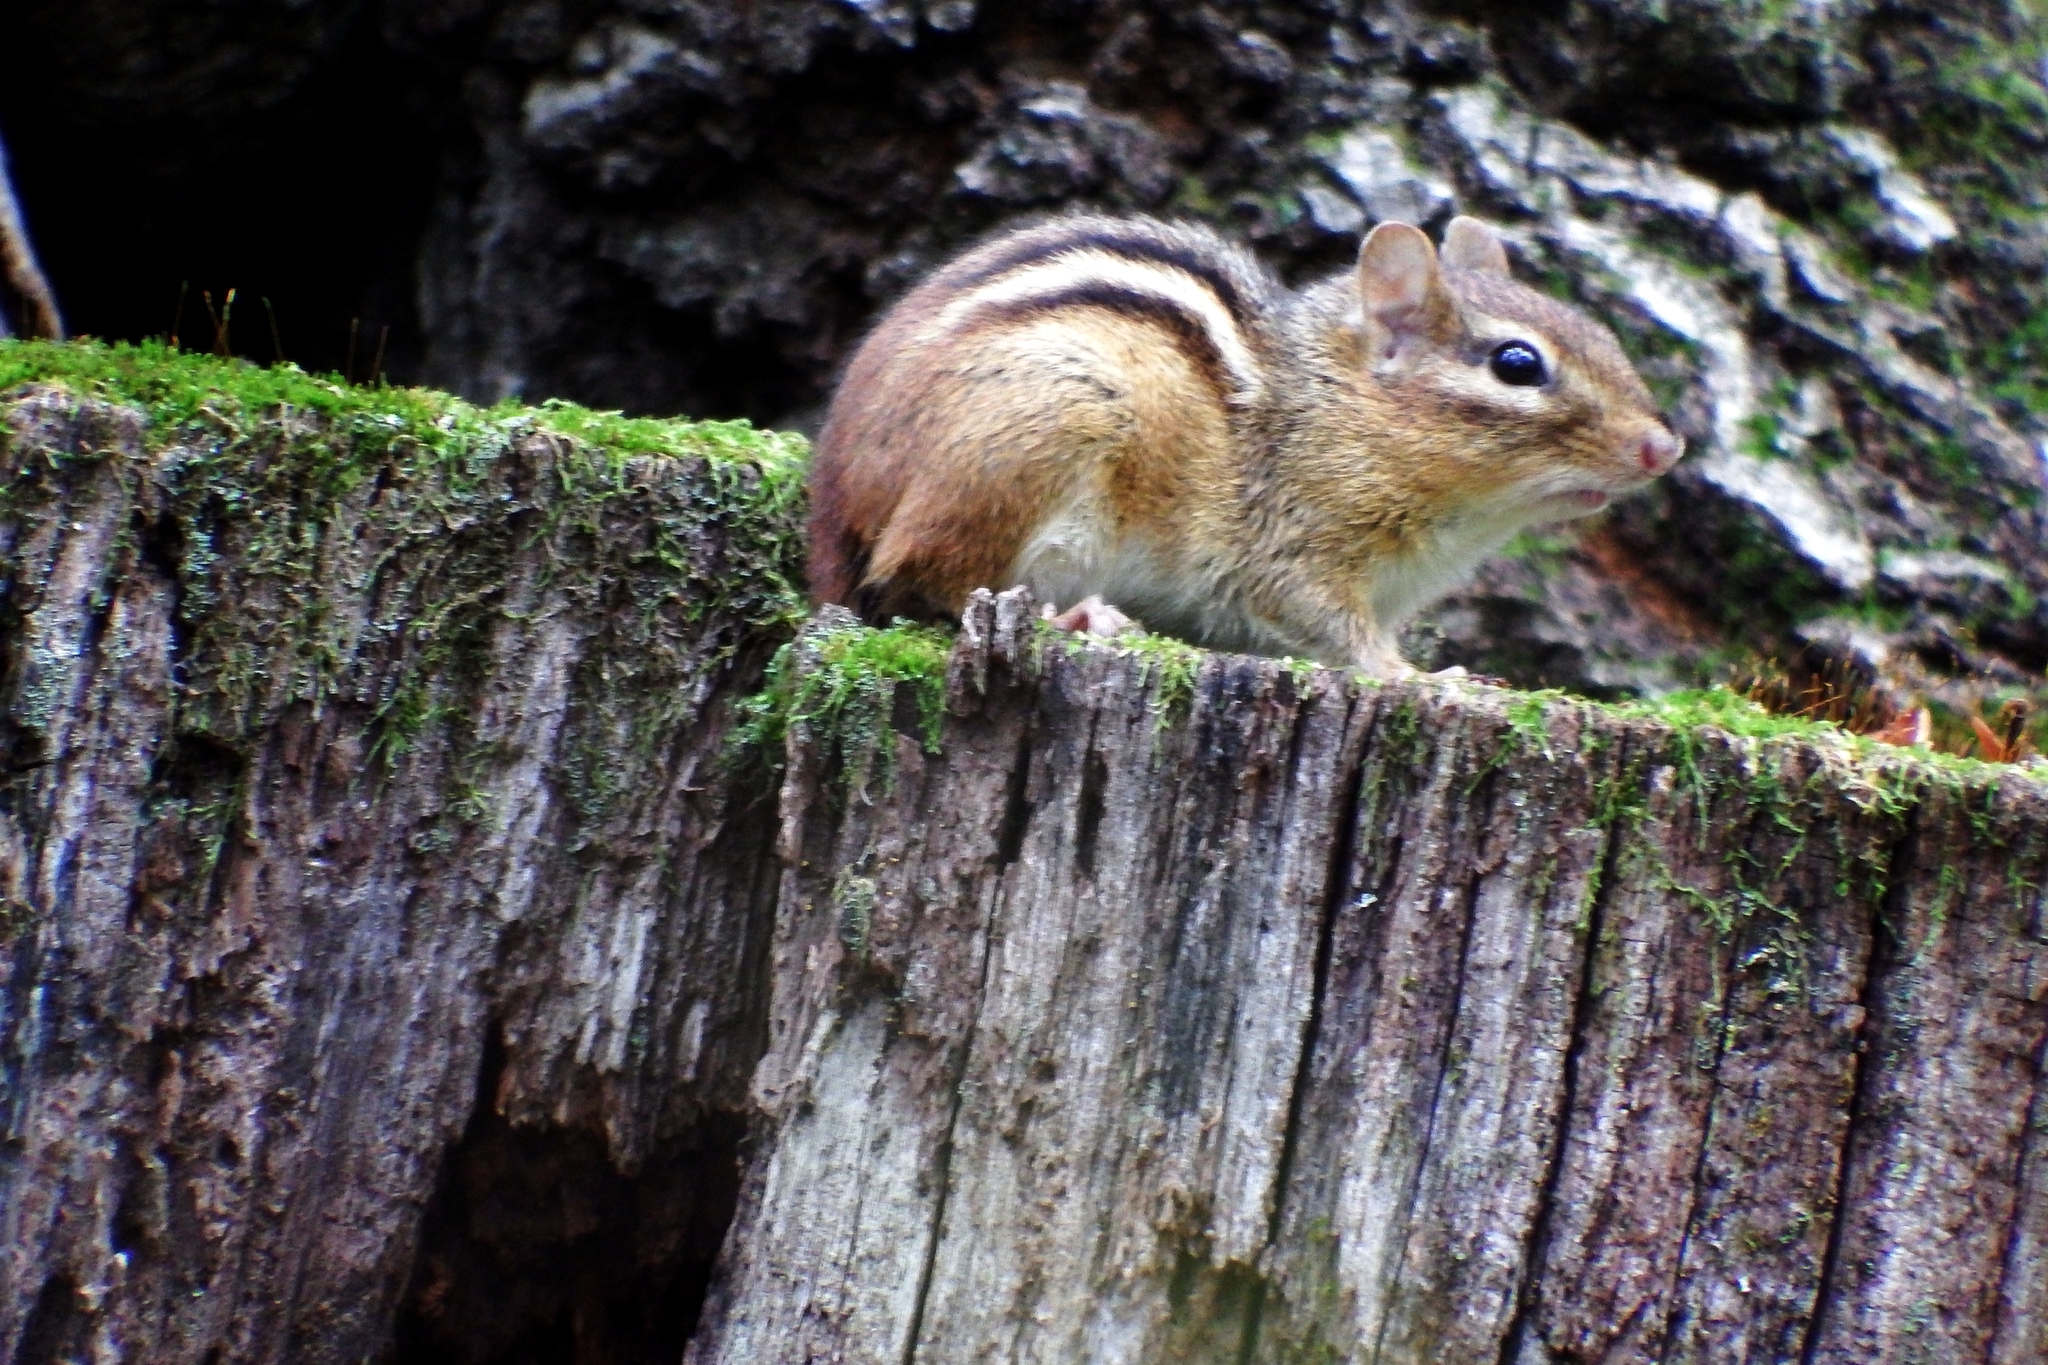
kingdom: Animalia
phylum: Chordata
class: Mammalia
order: Rodentia
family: Sciuridae
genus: Tamias
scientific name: Tamias striatus
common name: Eastern chipmunk
